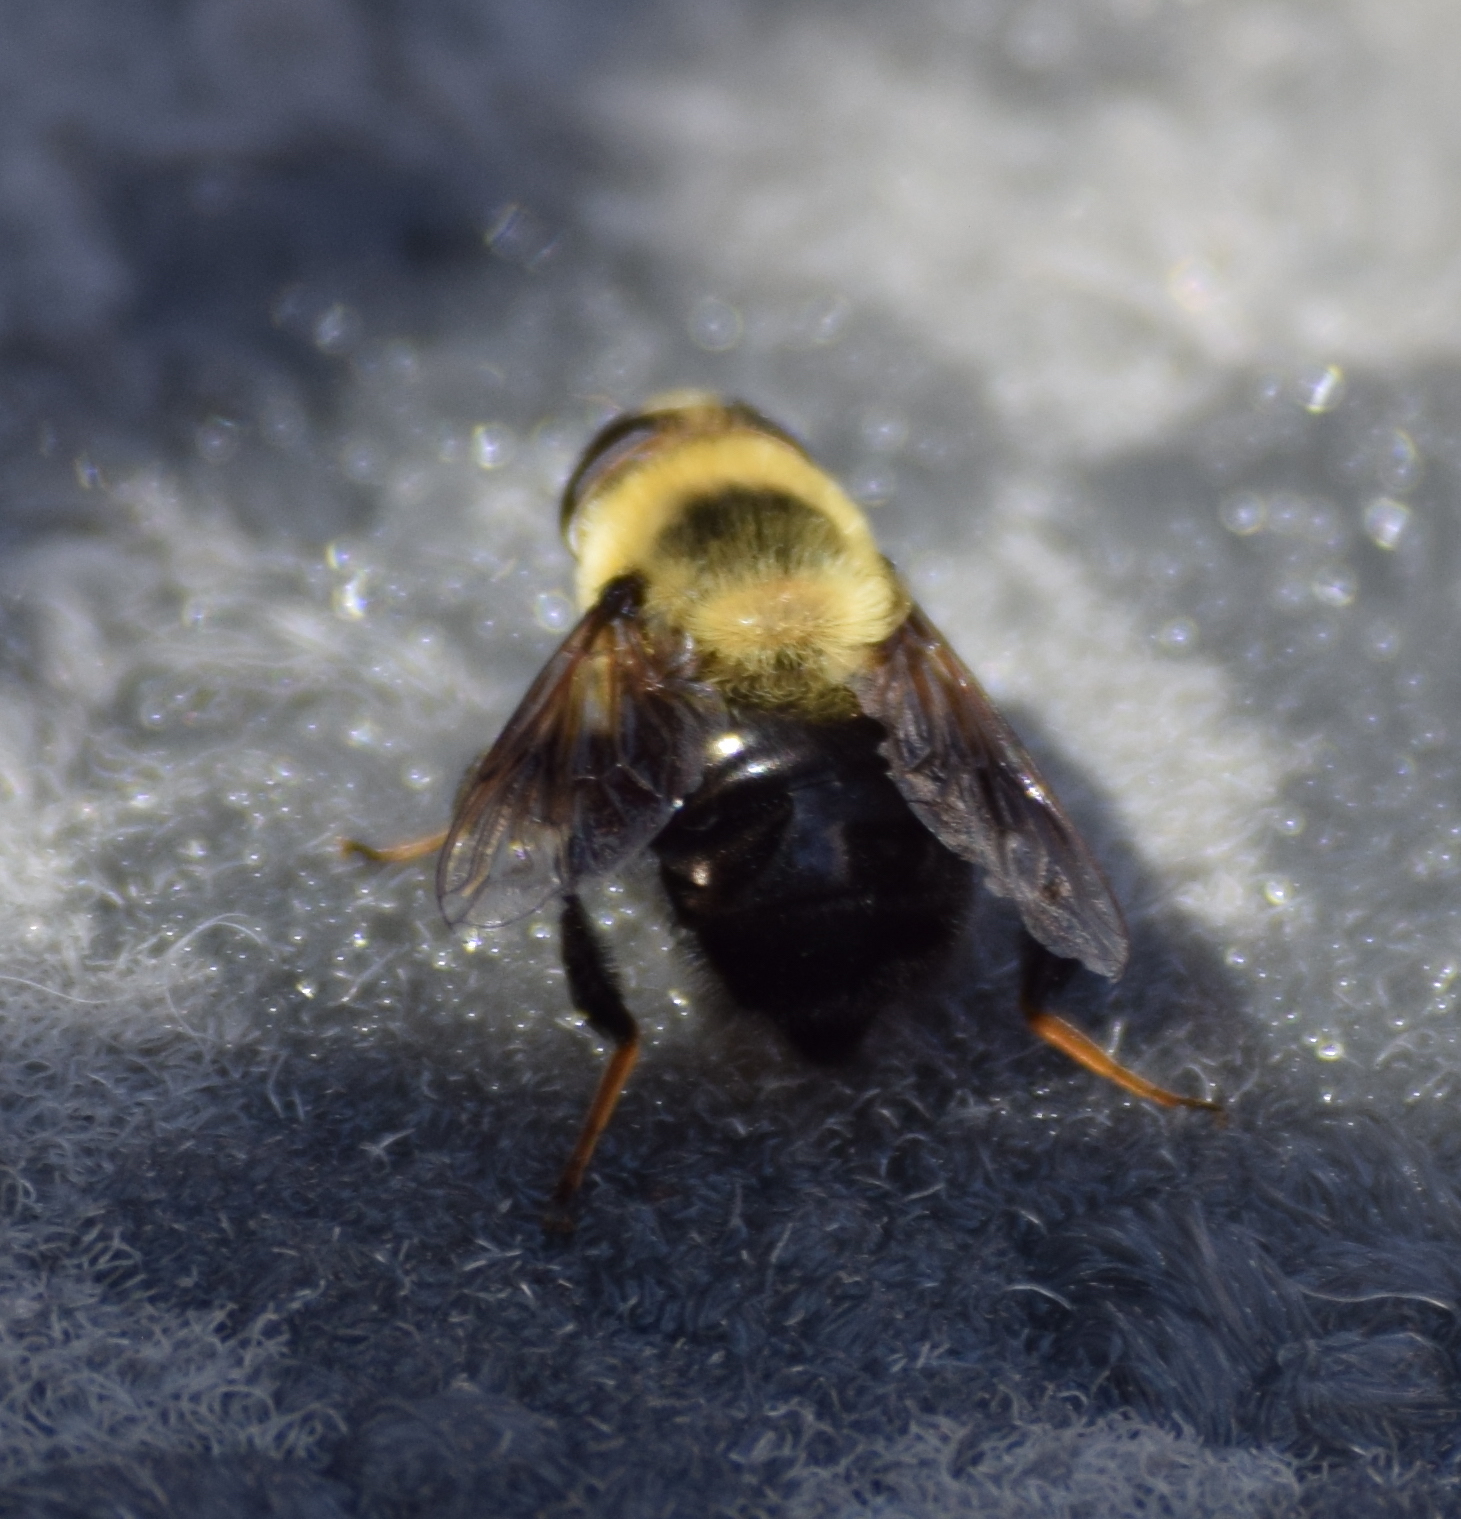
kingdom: Animalia
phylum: Arthropoda
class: Insecta
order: Diptera
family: Syrphidae
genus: Eristalis
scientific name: Eristalis flavipes
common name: Orange-legged drone fly
